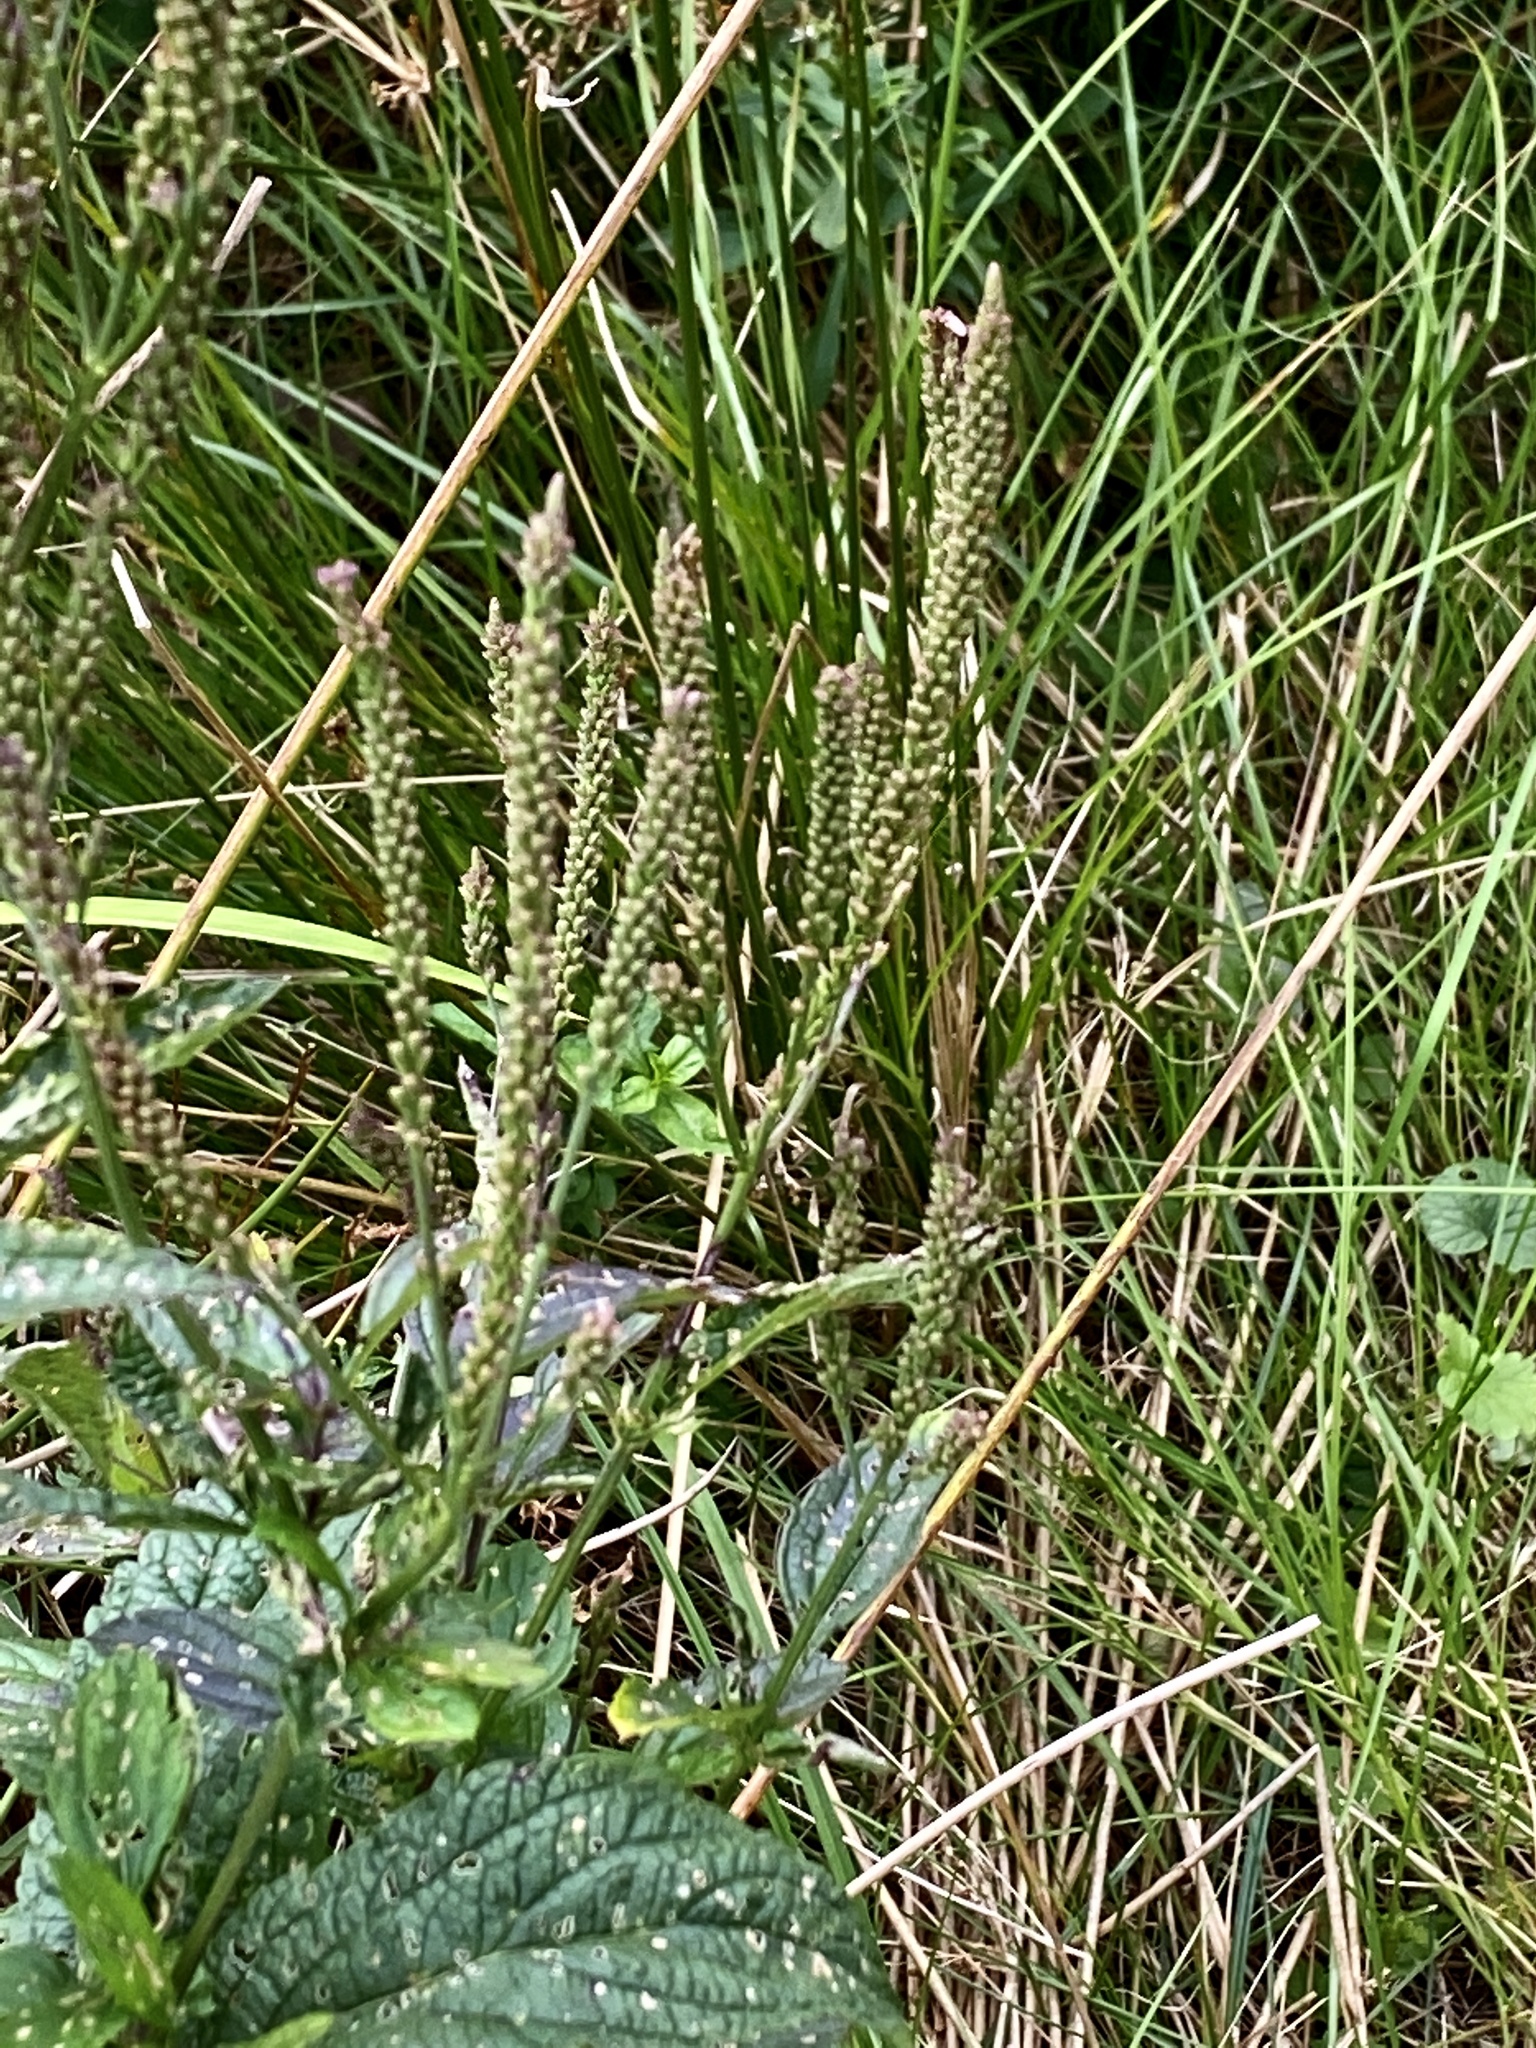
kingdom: Plantae
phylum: Tracheophyta
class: Magnoliopsida
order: Lamiales
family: Verbenaceae
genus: Verbena
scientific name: Verbena hastata
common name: American blue vervain
